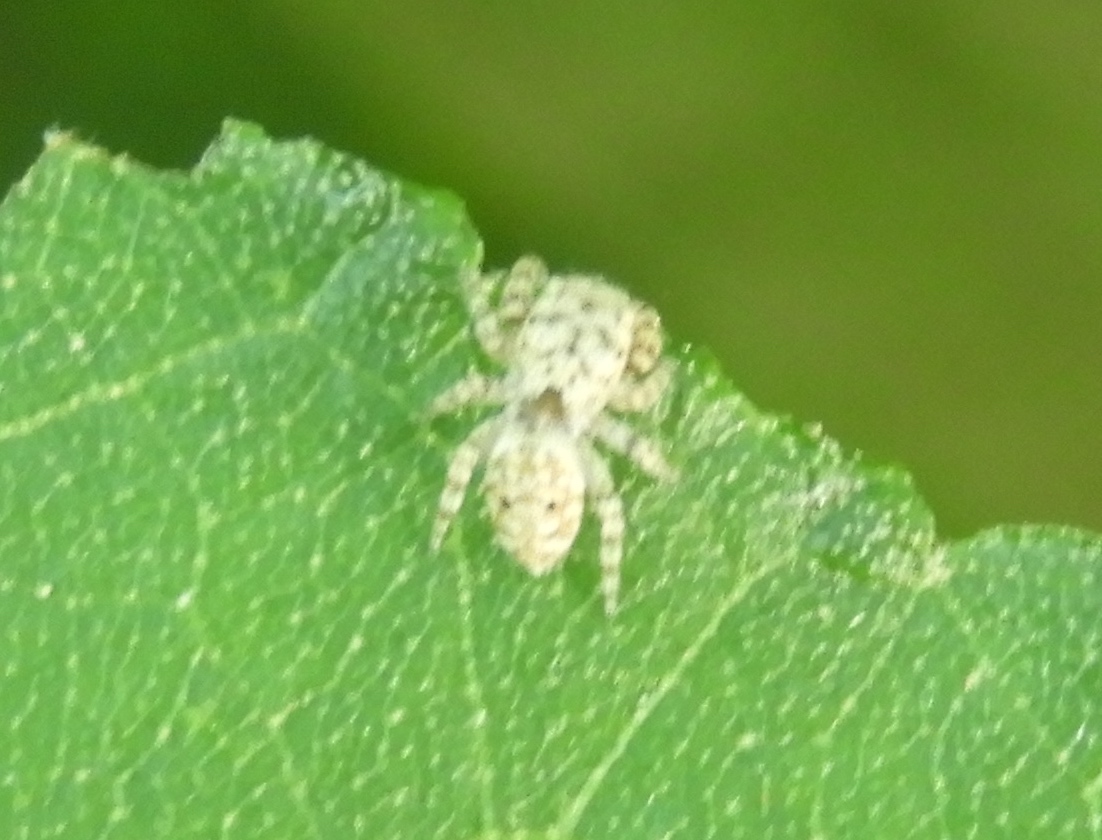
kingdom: Animalia
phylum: Arthropoda
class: Arachnida
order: Araneae
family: Salticidae
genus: Pelegrina
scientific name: Pelegrina
